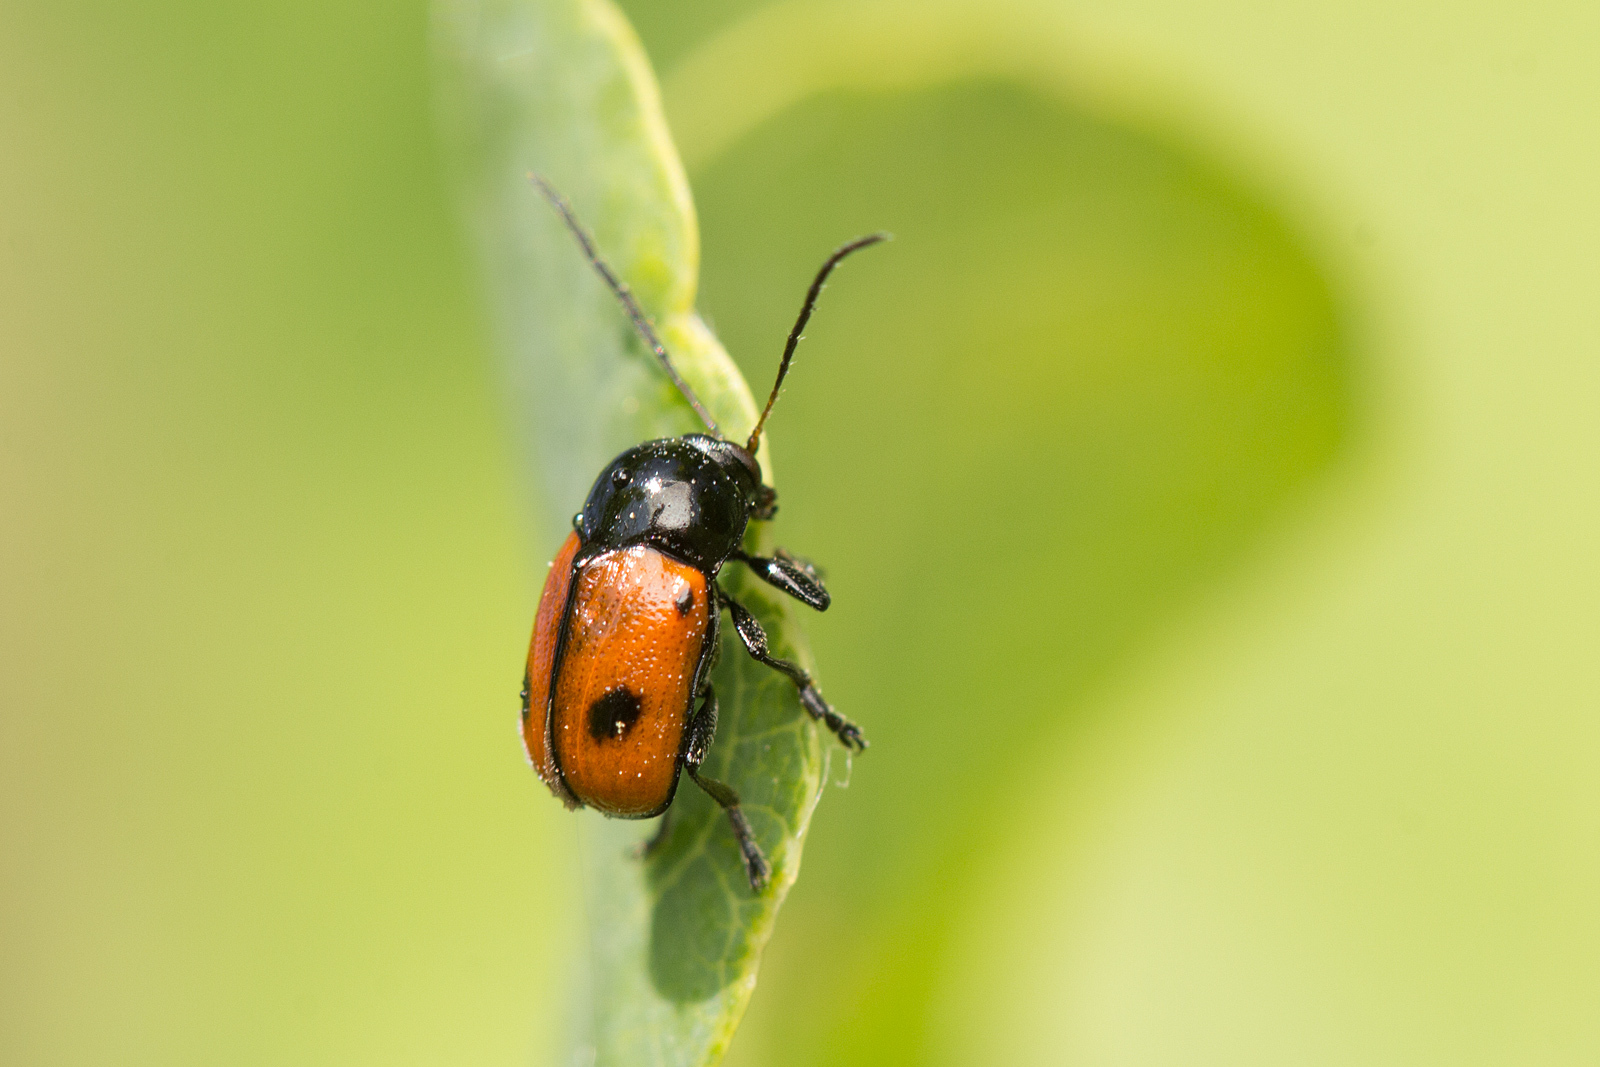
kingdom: Animalia
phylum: Arthropoda
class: Insecta
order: Coleoptera
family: Chrysomelidae
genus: Chiridopsis
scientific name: Chiridopsis bipunctata
